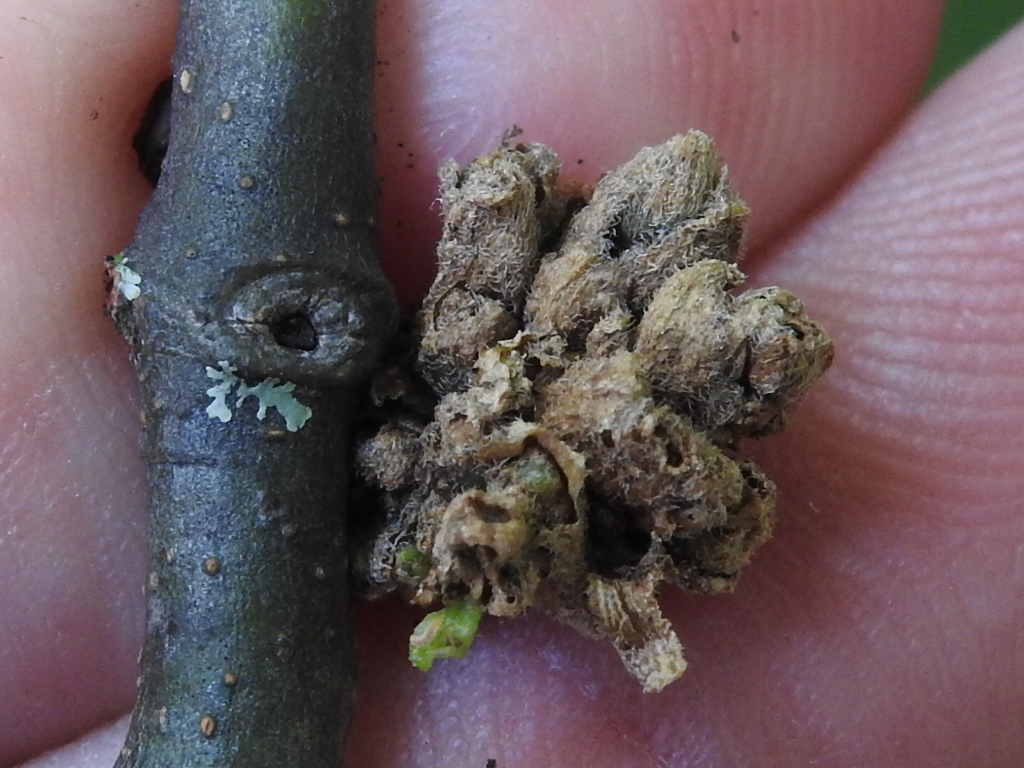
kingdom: Animalia
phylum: Arthropoda
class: Arachnida
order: Trombidiformes
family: Eriophyidae
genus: Aceria
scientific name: Aceria
